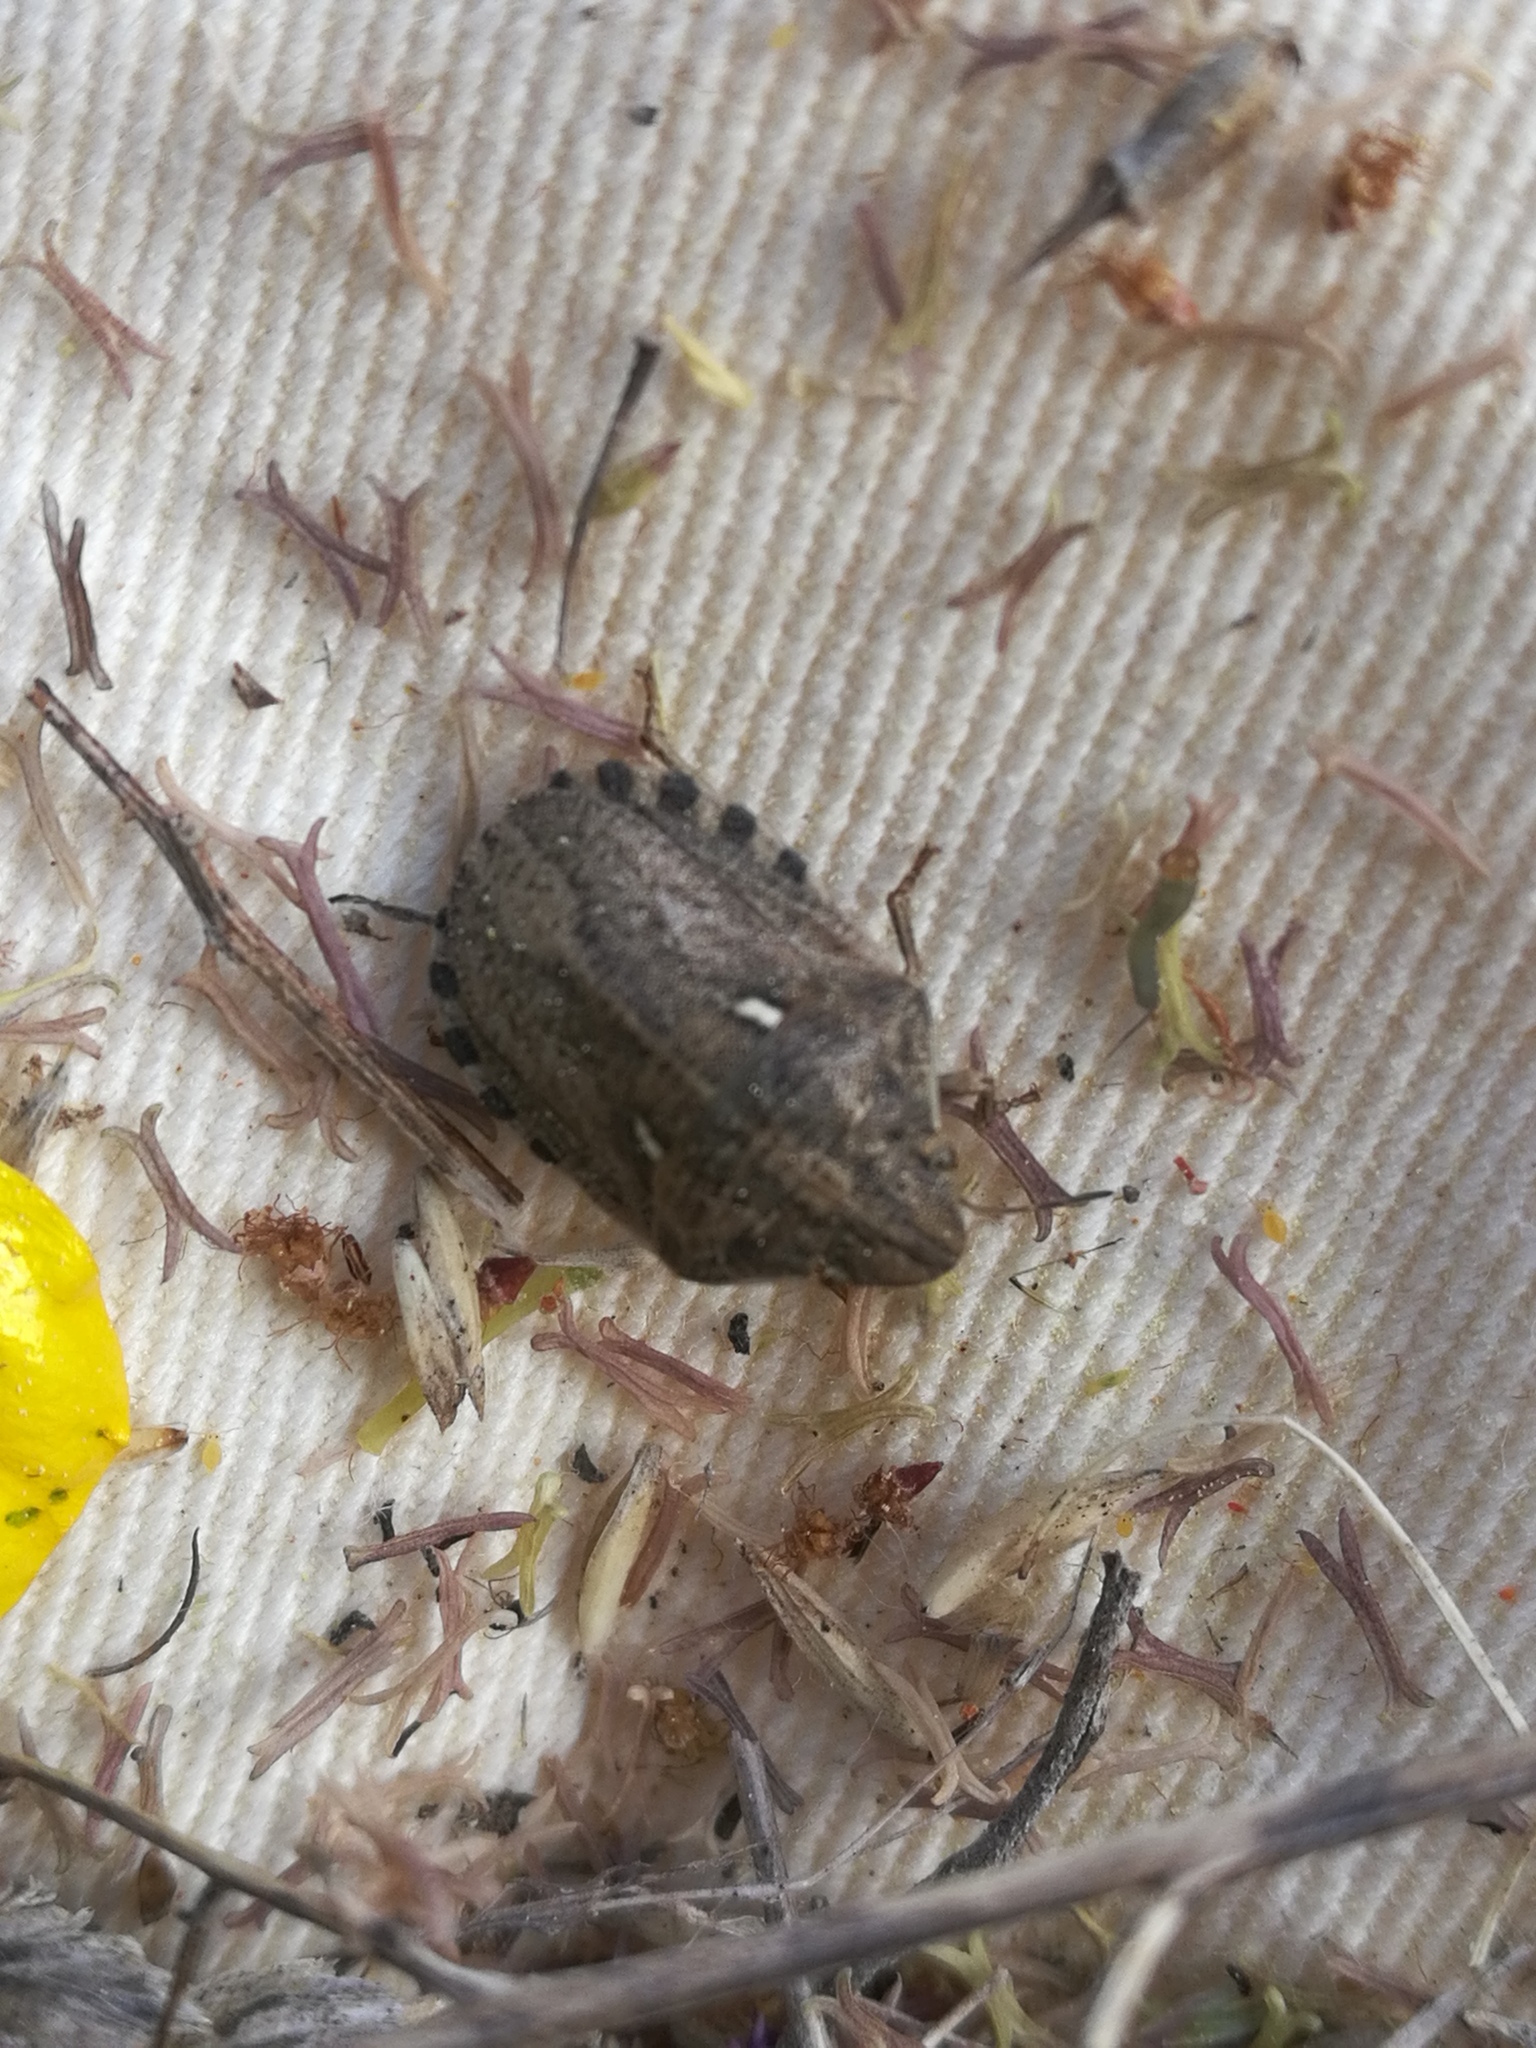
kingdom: Animalia
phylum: Arthropoda
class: Insecta
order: Hemiptera
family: Scutelleridae
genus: Eurygaster
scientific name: Eurygaster maura
